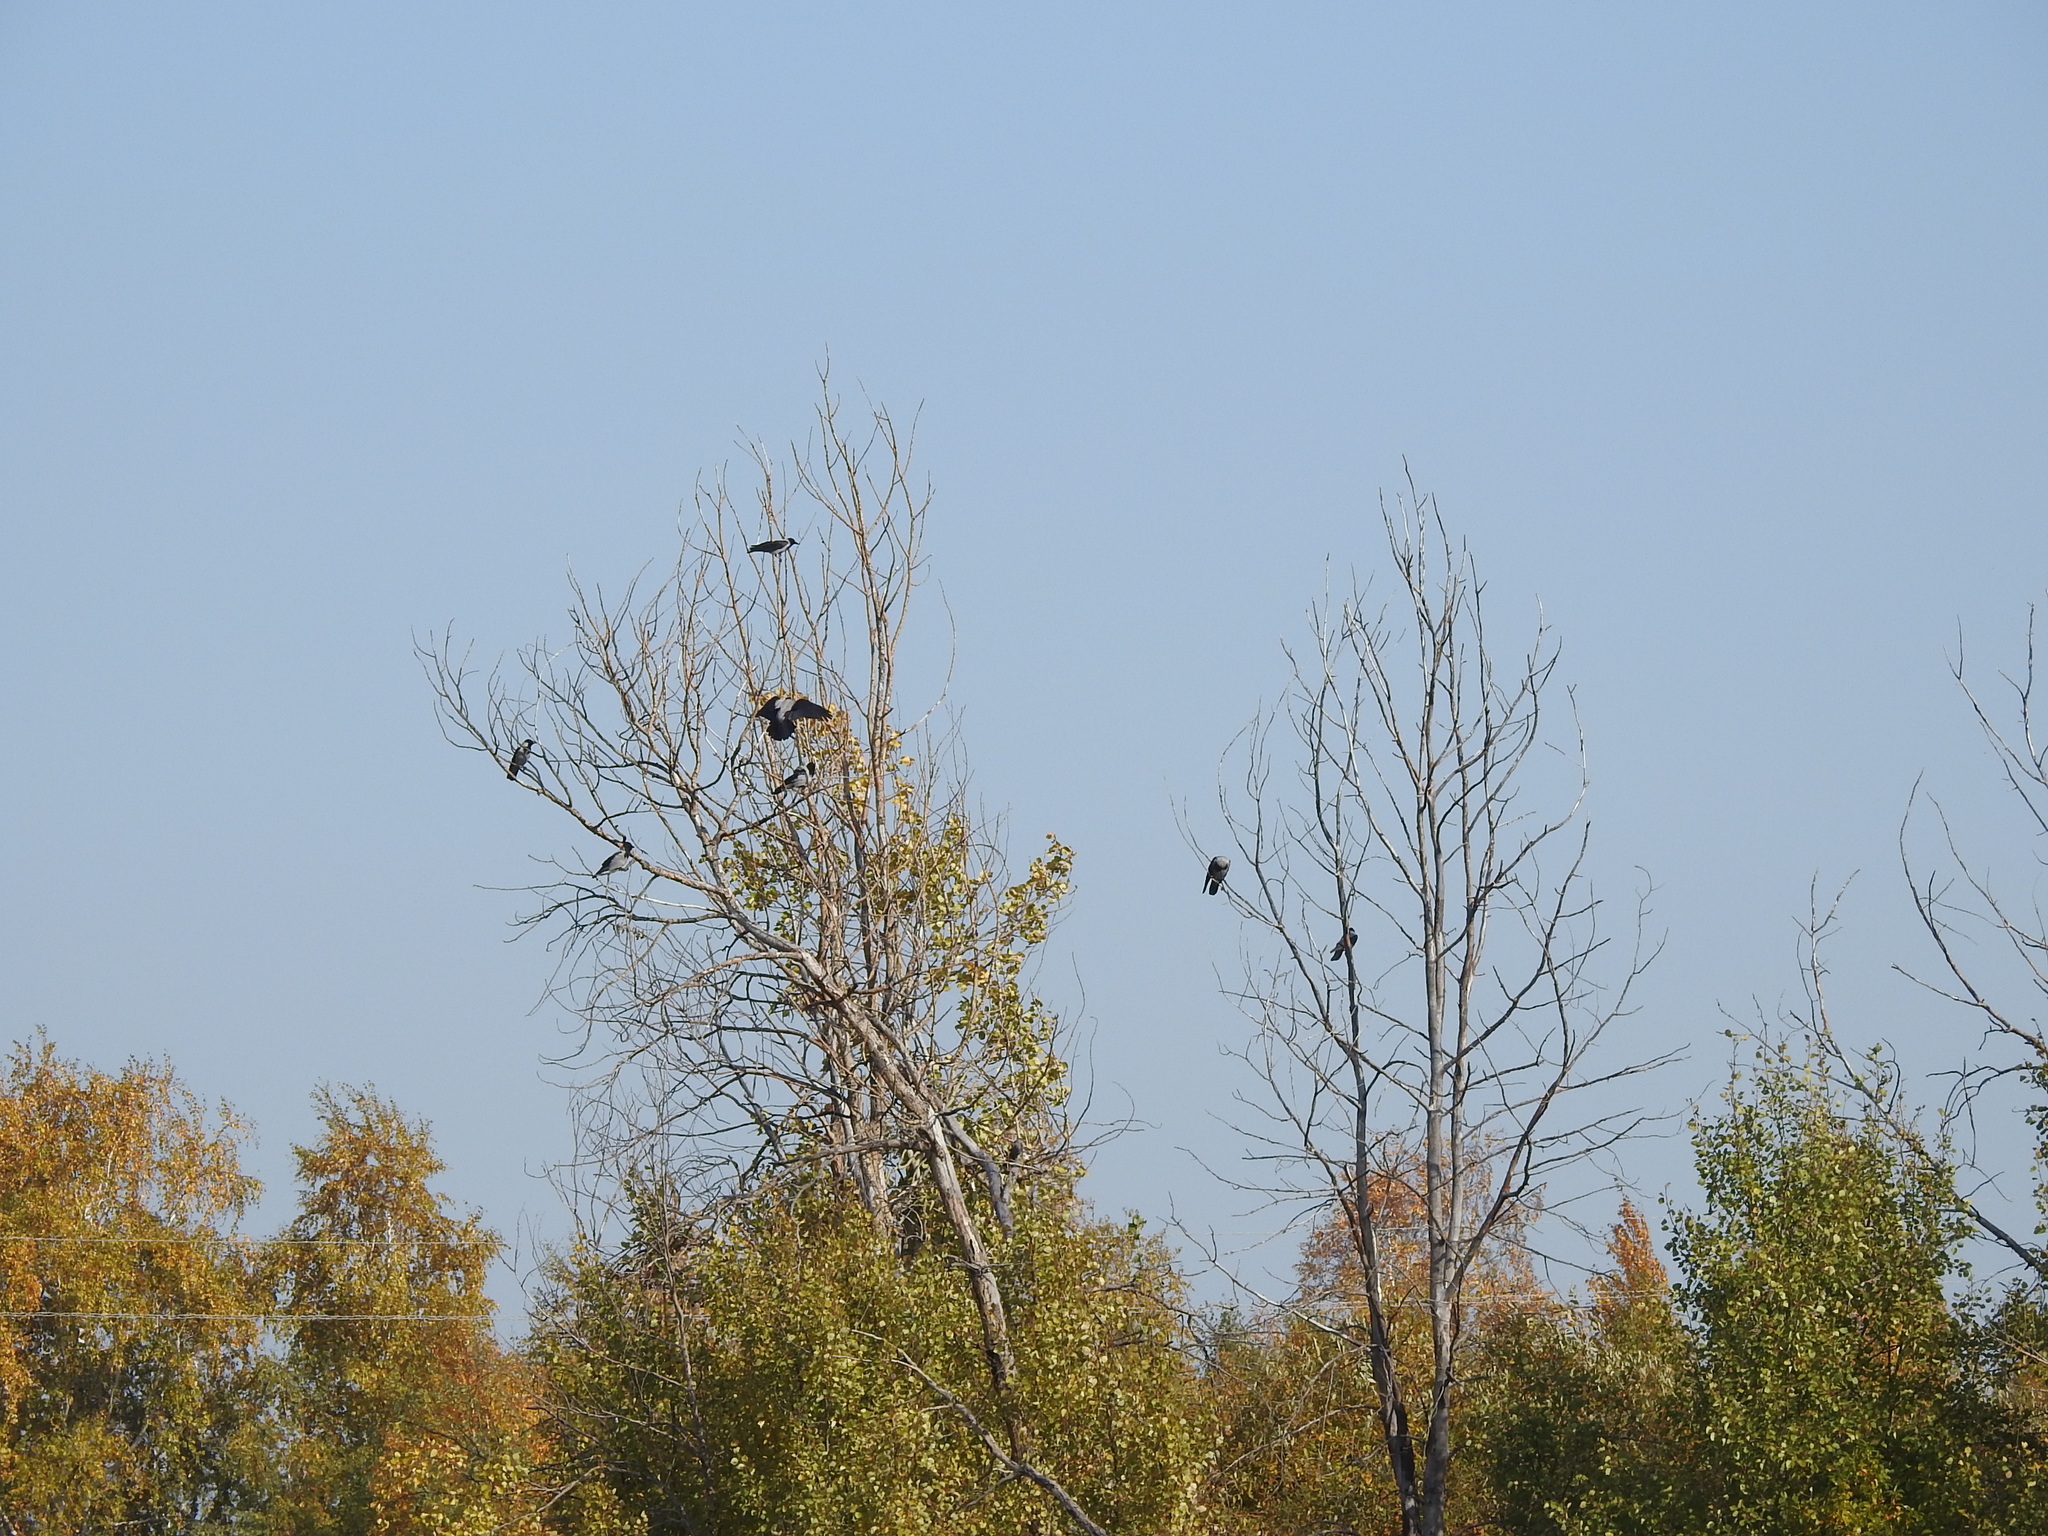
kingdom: Animalia
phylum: Chordata
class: Aves
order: Passeriformes
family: Corvidae
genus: Corvus
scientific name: Corvus cornix
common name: Hooded crow
